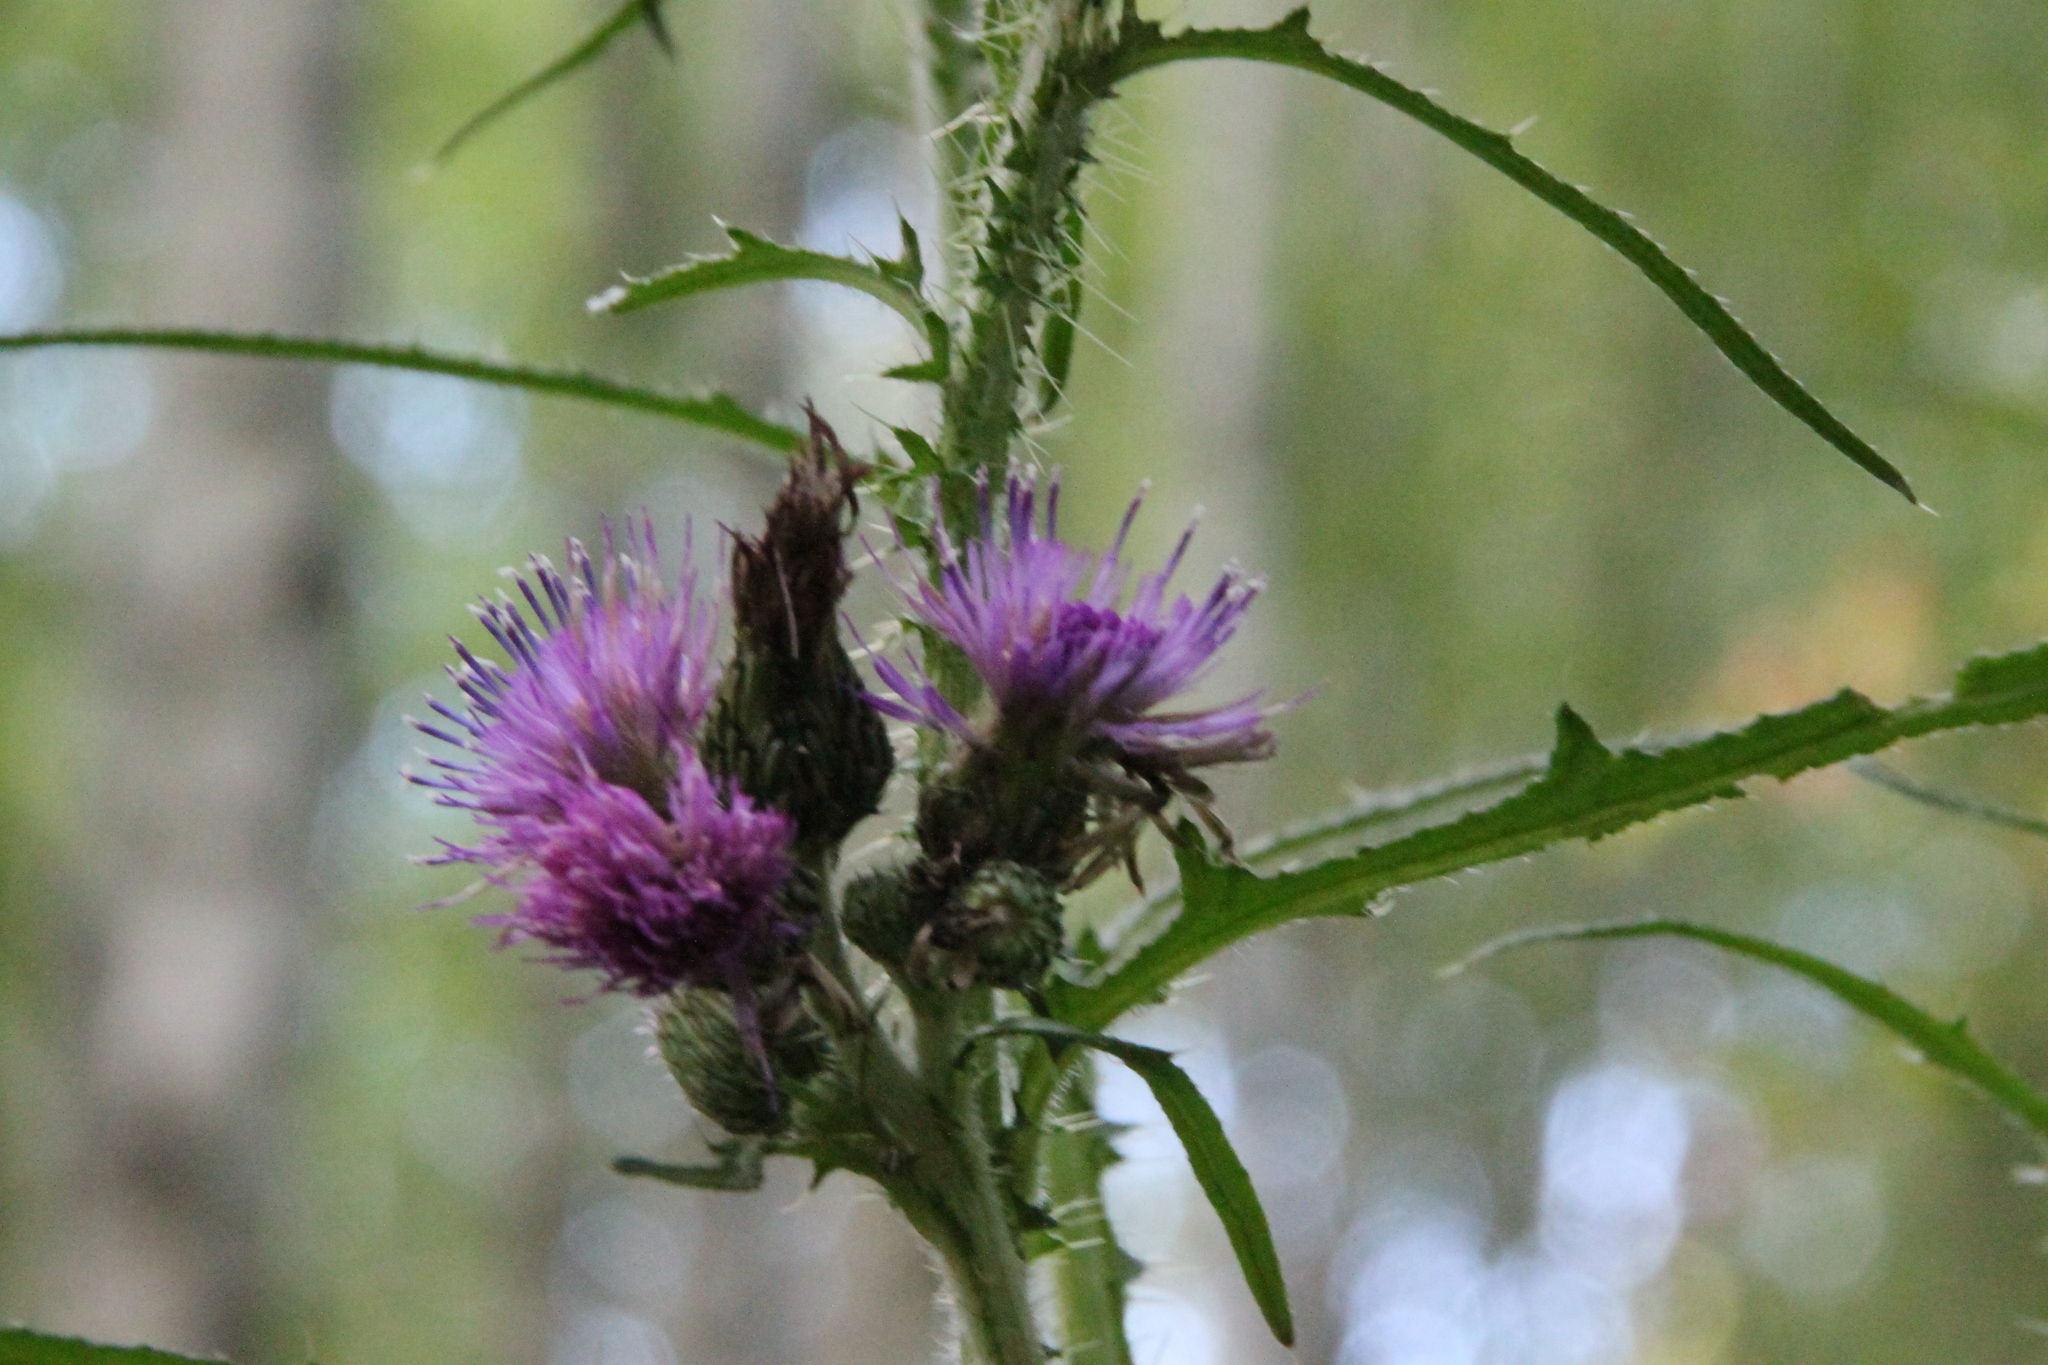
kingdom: Plantae
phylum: Tracheophyta
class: Magnoliopsida
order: Asterales
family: Asteraceae
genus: Cirsium
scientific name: Cirsium palustre
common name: Marsh thistle
